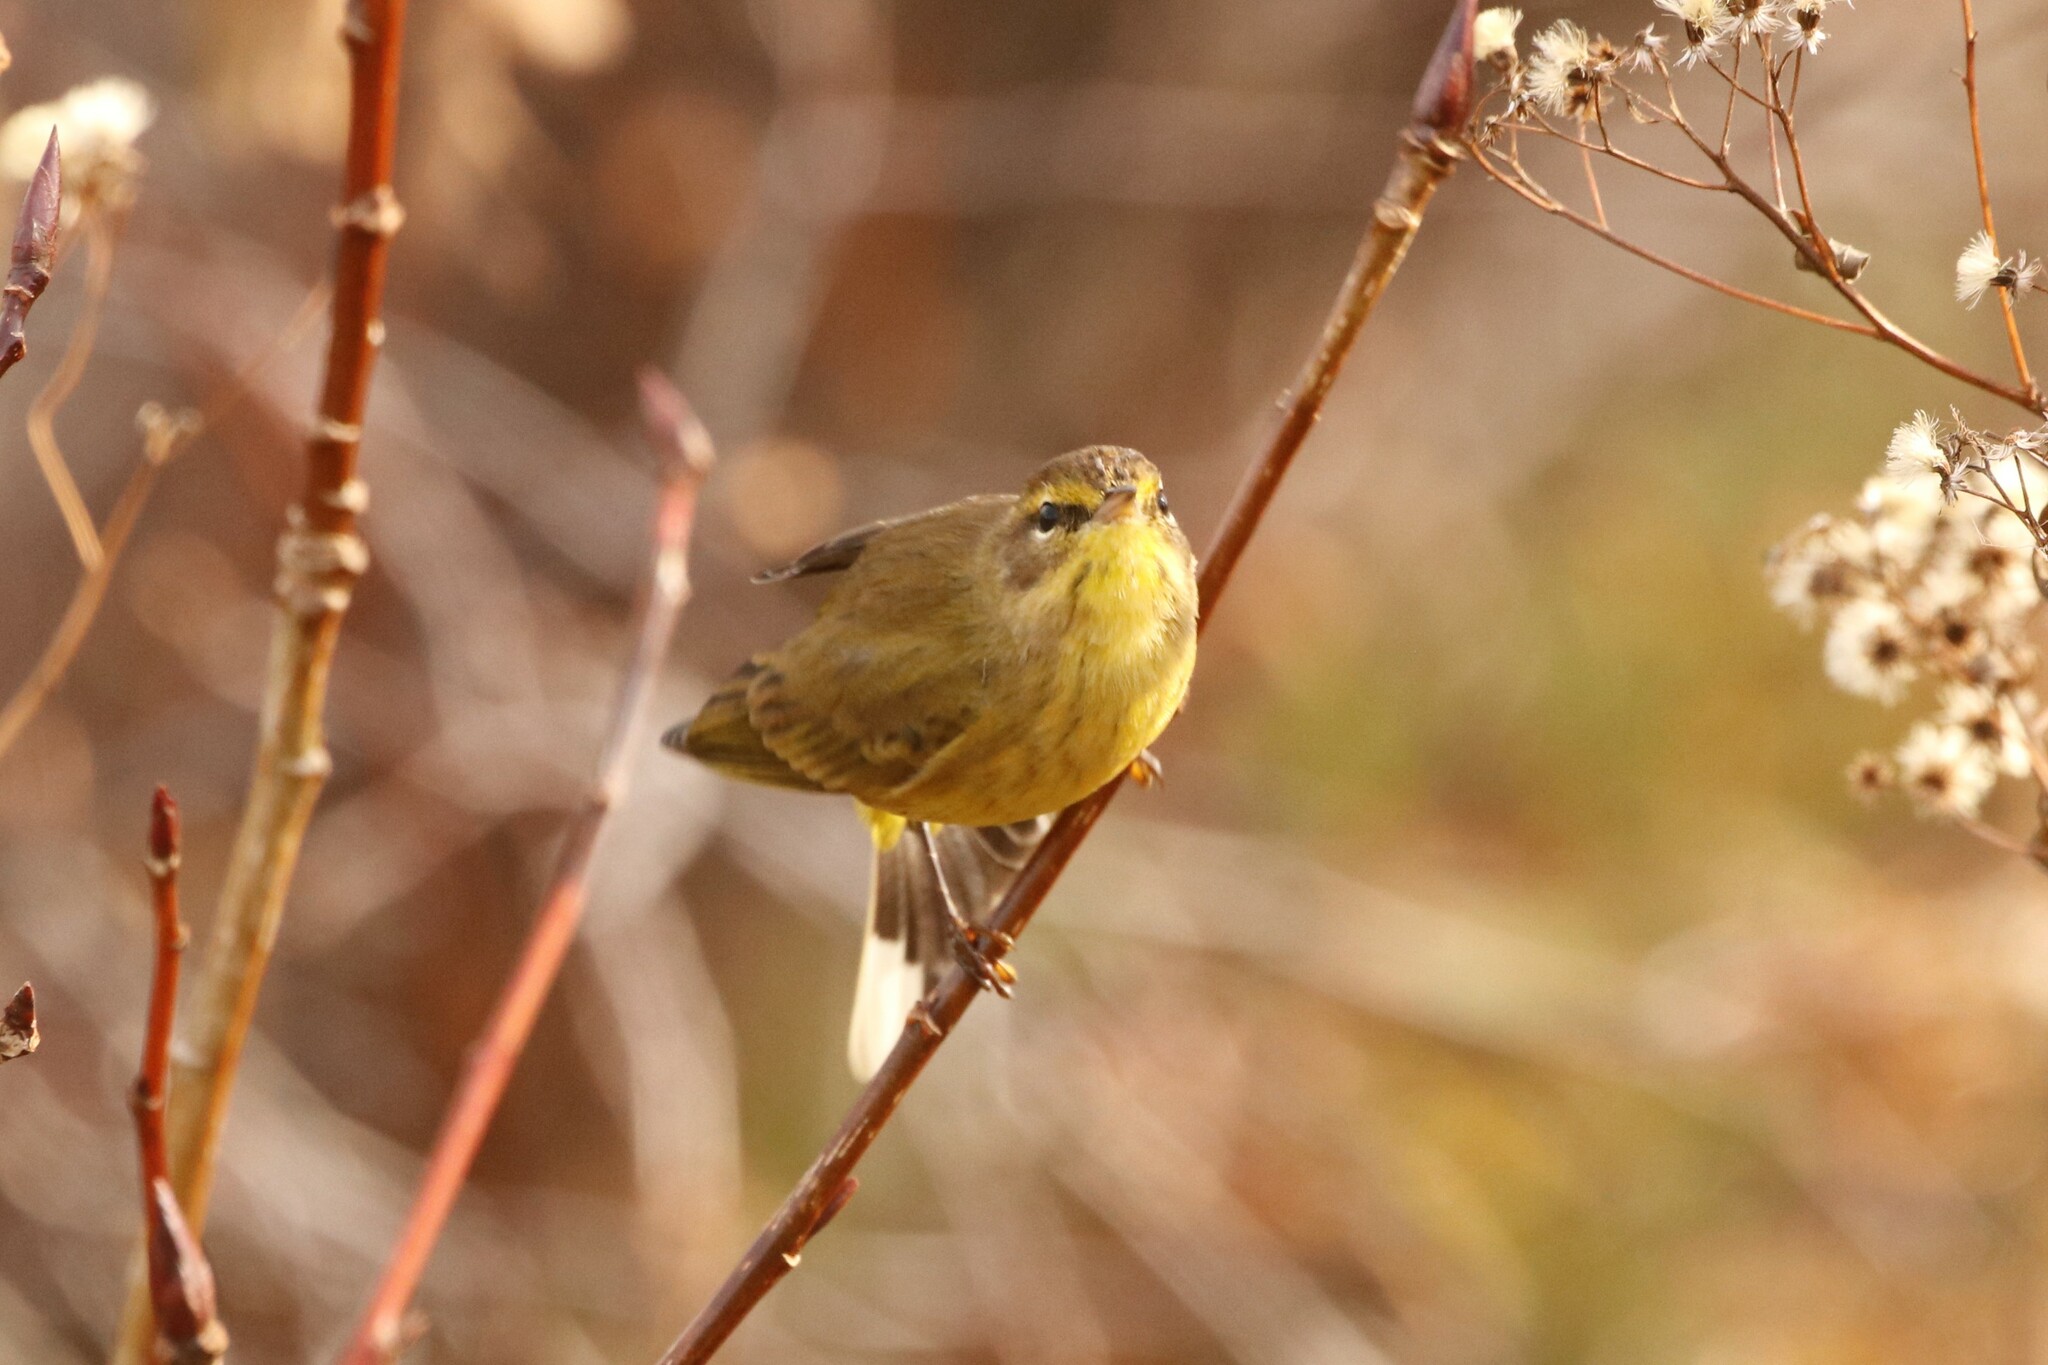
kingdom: Animalia
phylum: Chordata
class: Aves
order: Passeriformes
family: Parulidae
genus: Setophaga
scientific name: Setophaga palmarum
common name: Palm warbler
